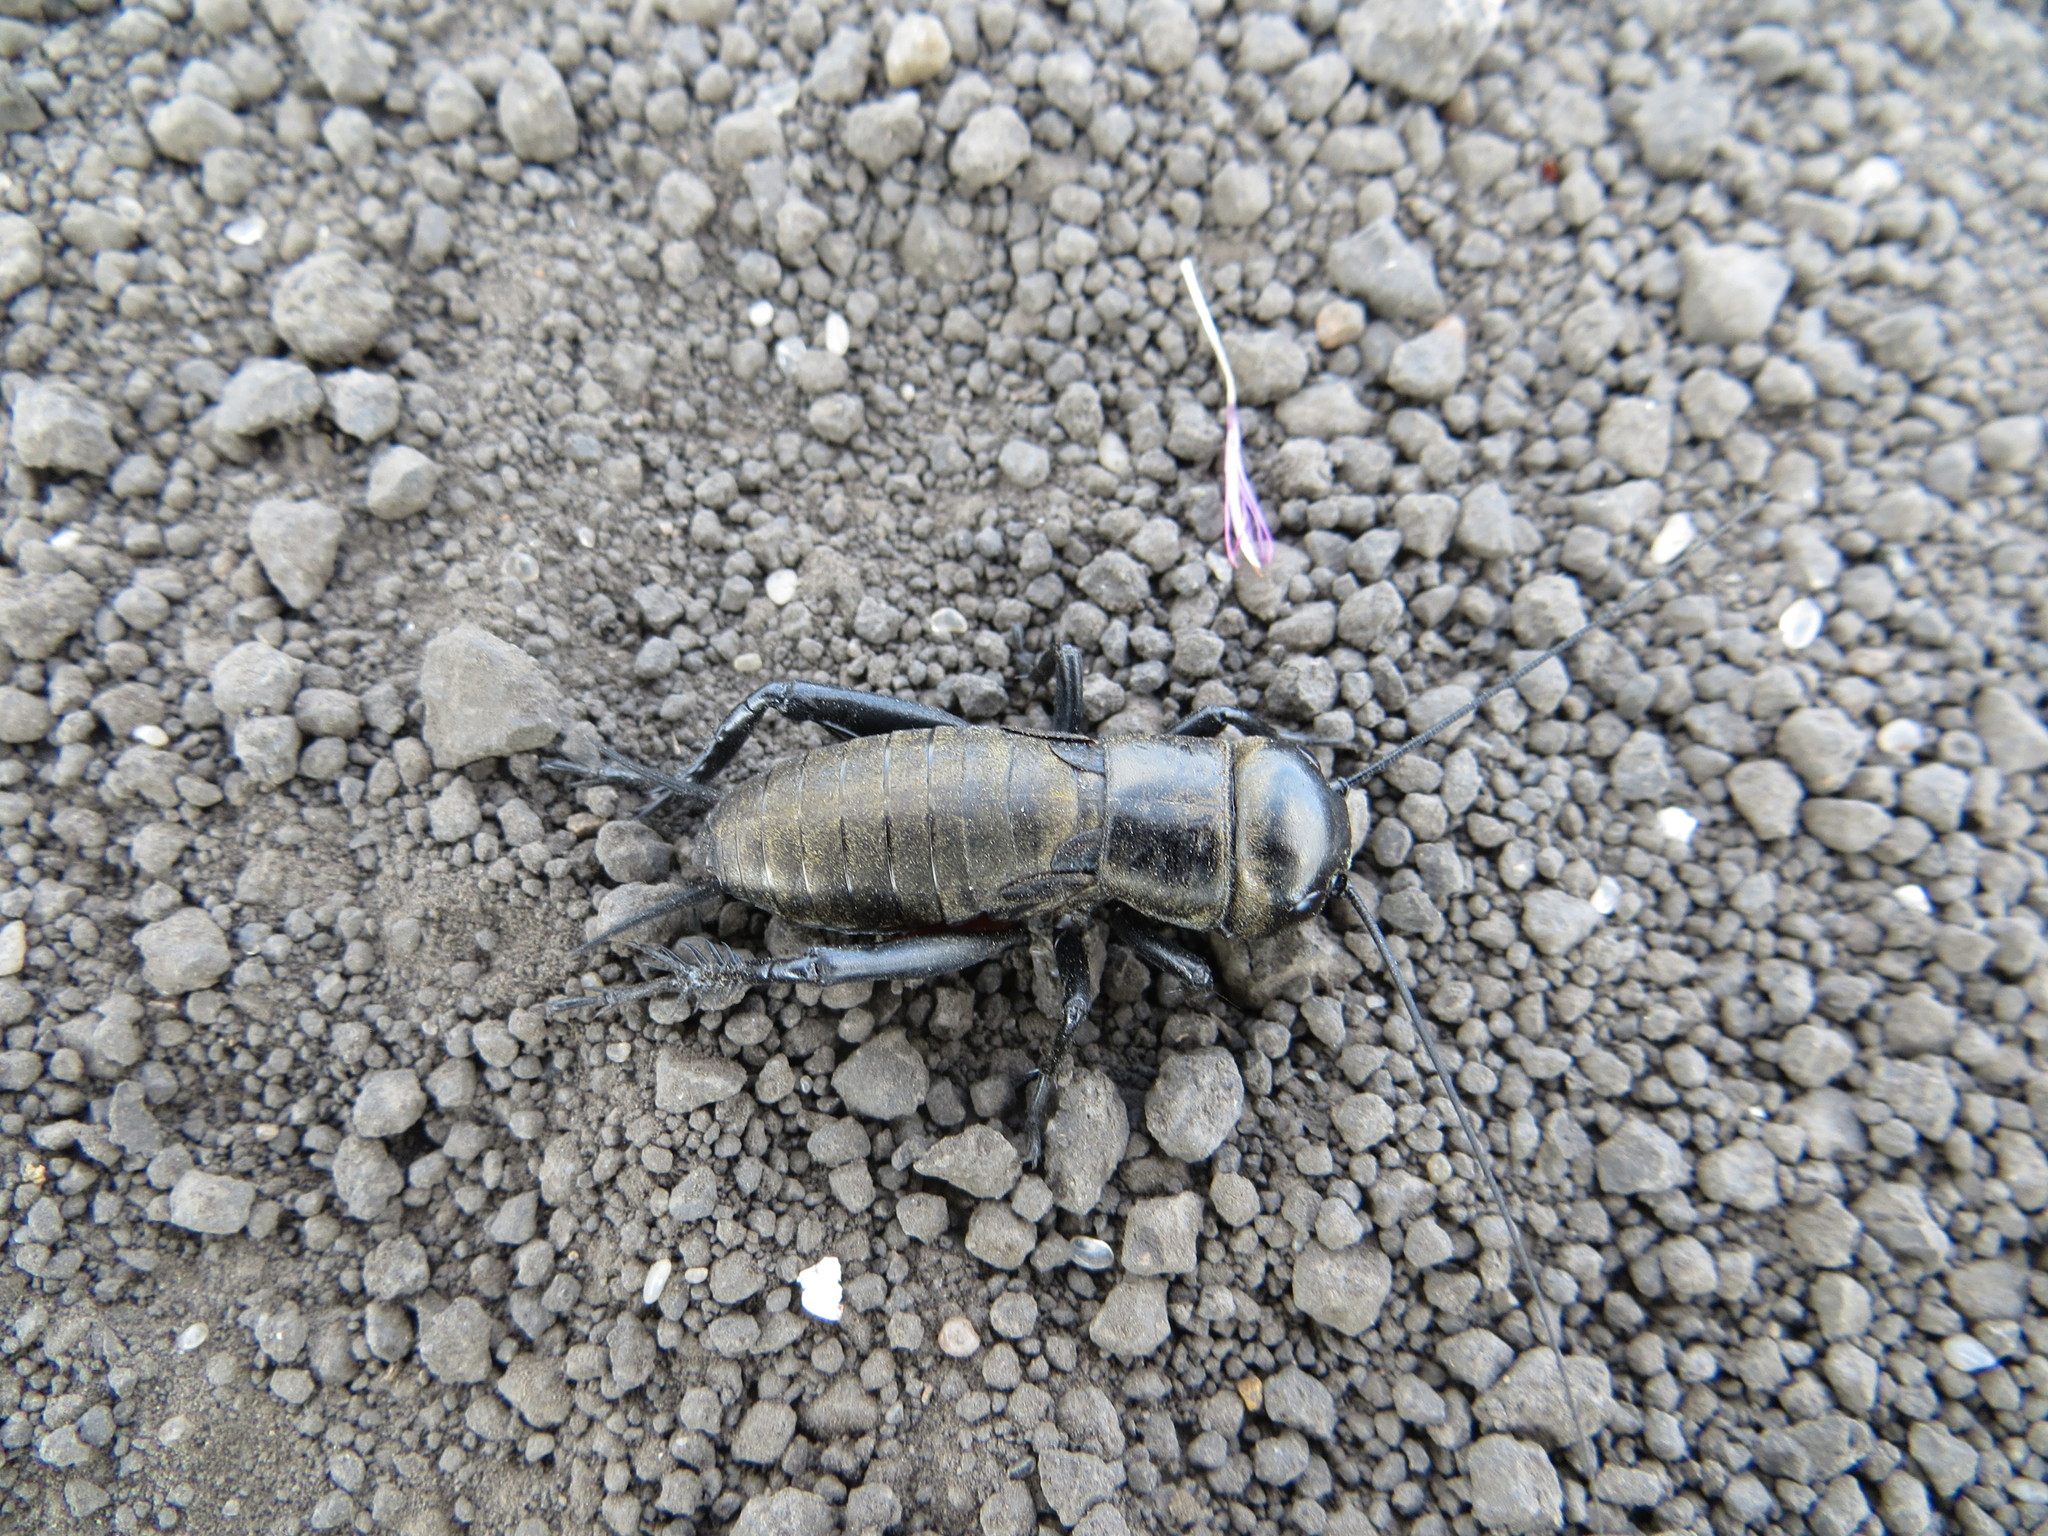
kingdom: Animalia
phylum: Arthropoda
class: Insecta
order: Orthoptera
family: Gryllidae
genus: Gryllus
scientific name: Gryllus campestris
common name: Field cricket
